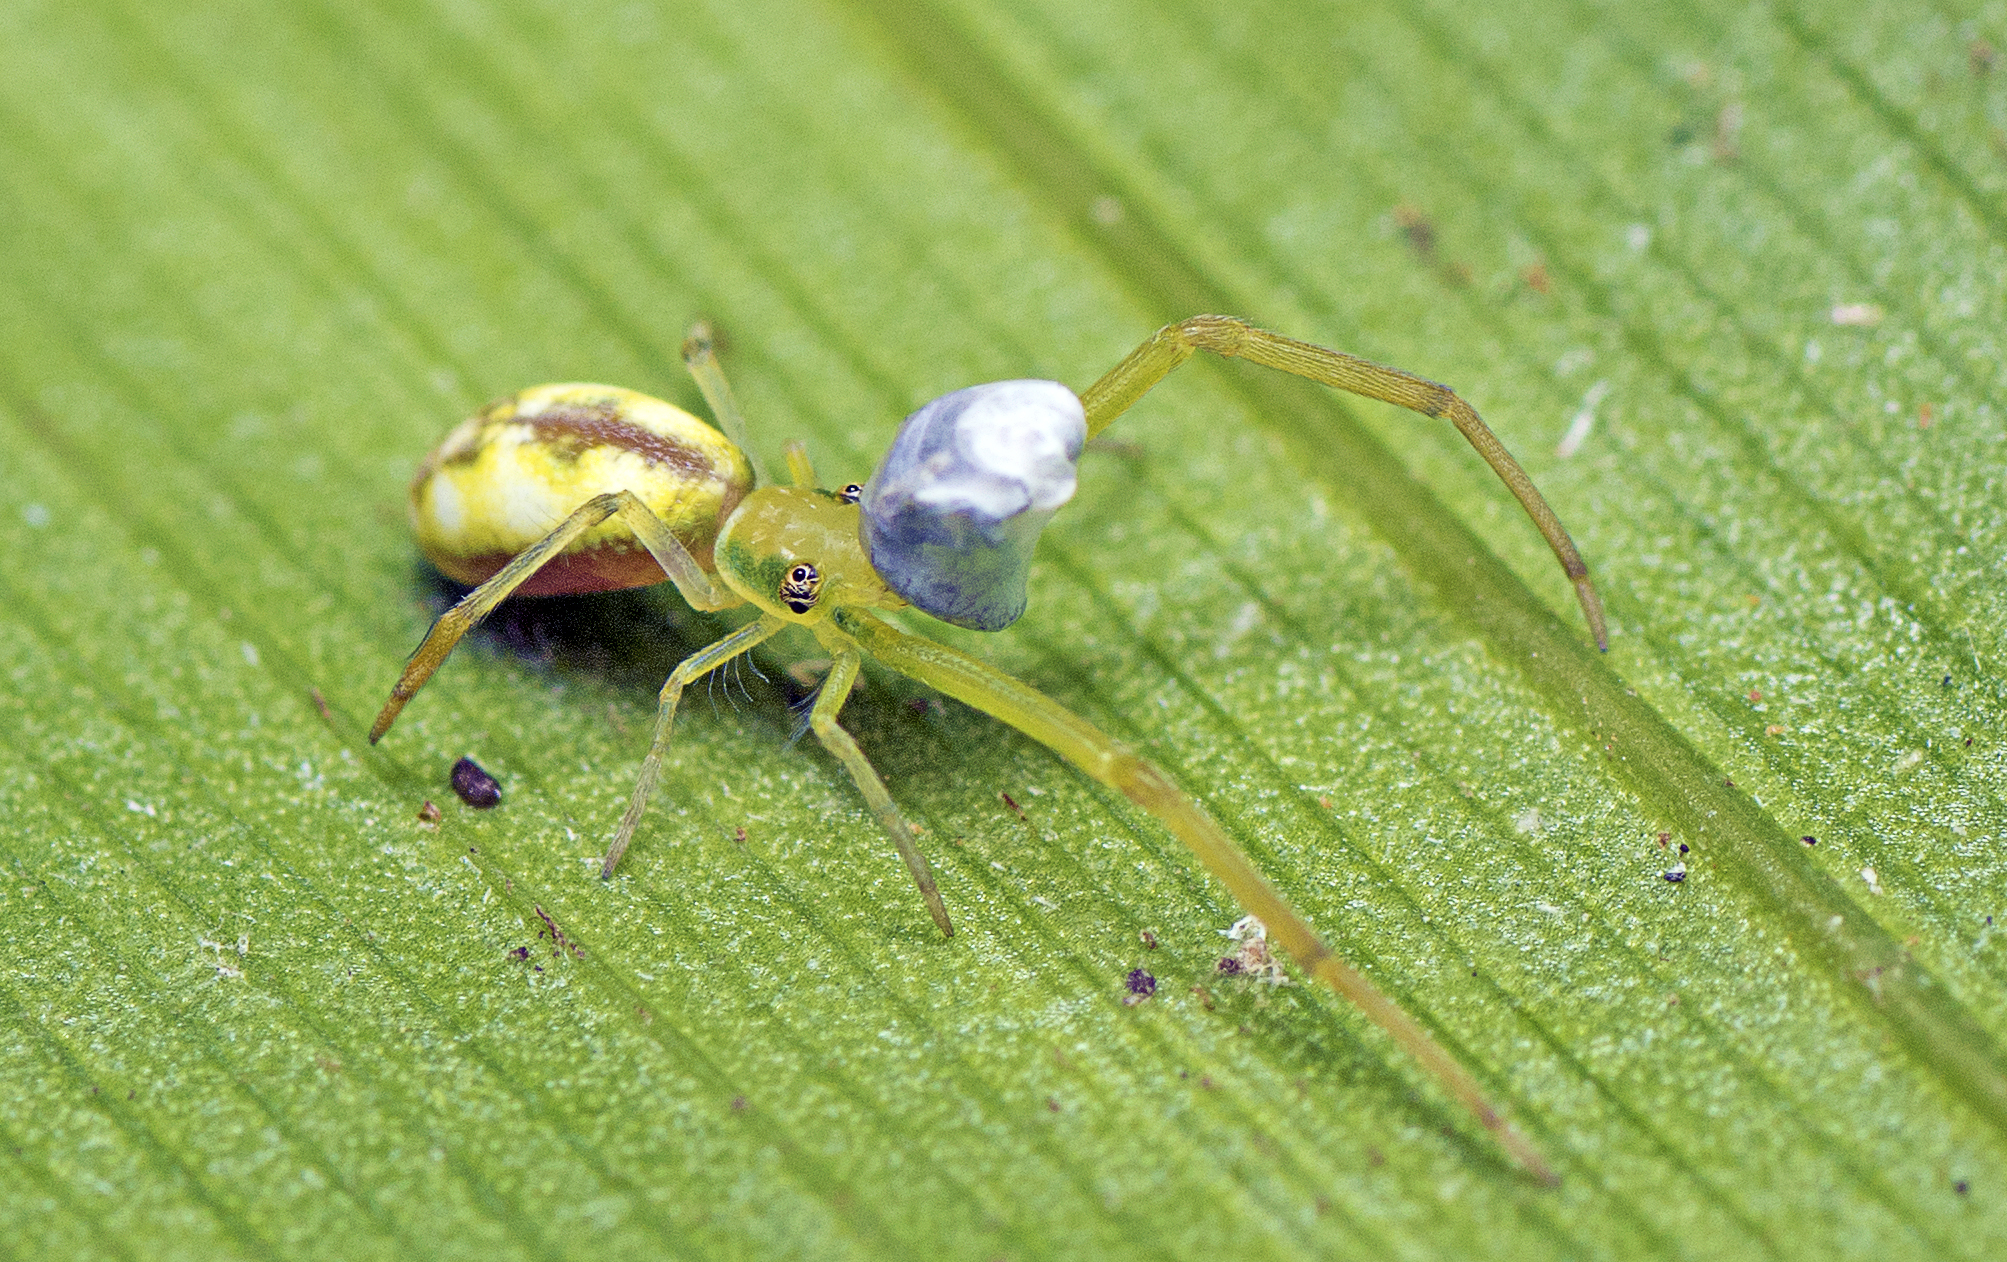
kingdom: Animalia
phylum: Arthropoda
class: Arachnida
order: Araneae
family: Uloboridae
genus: Miagrammopes
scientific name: Miagrammopes flavus
